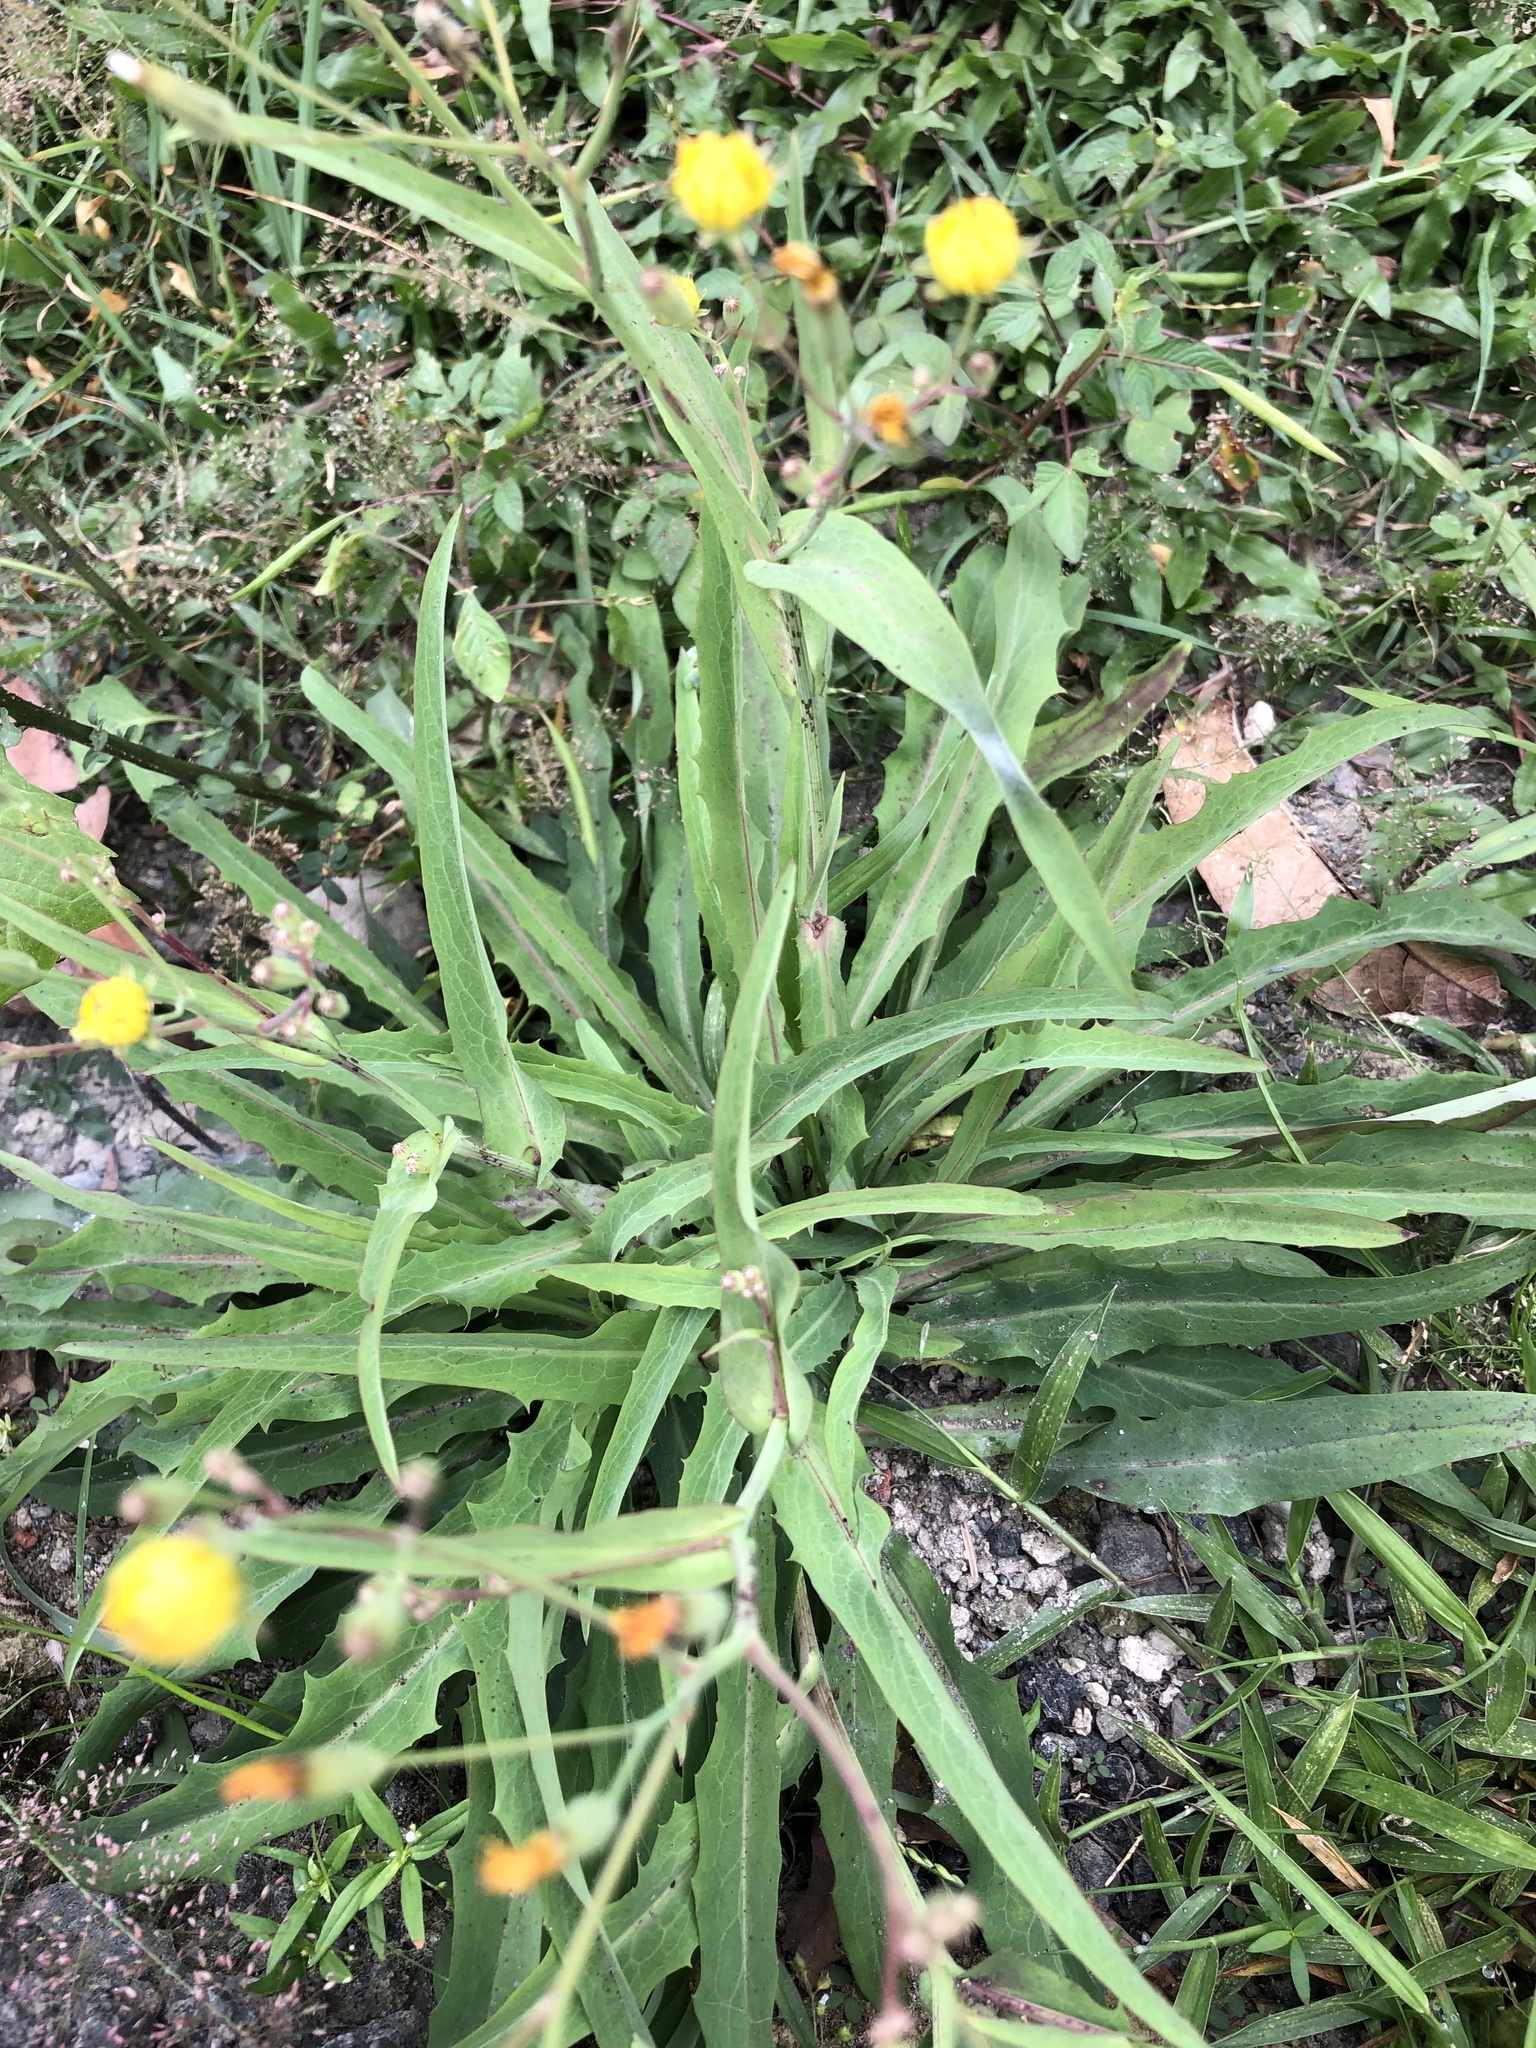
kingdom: Plantae
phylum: Tracheophyta
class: Magnoliopsida
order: Asterales
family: Asteraceae
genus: Ixeris
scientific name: Ixeris chinensis
